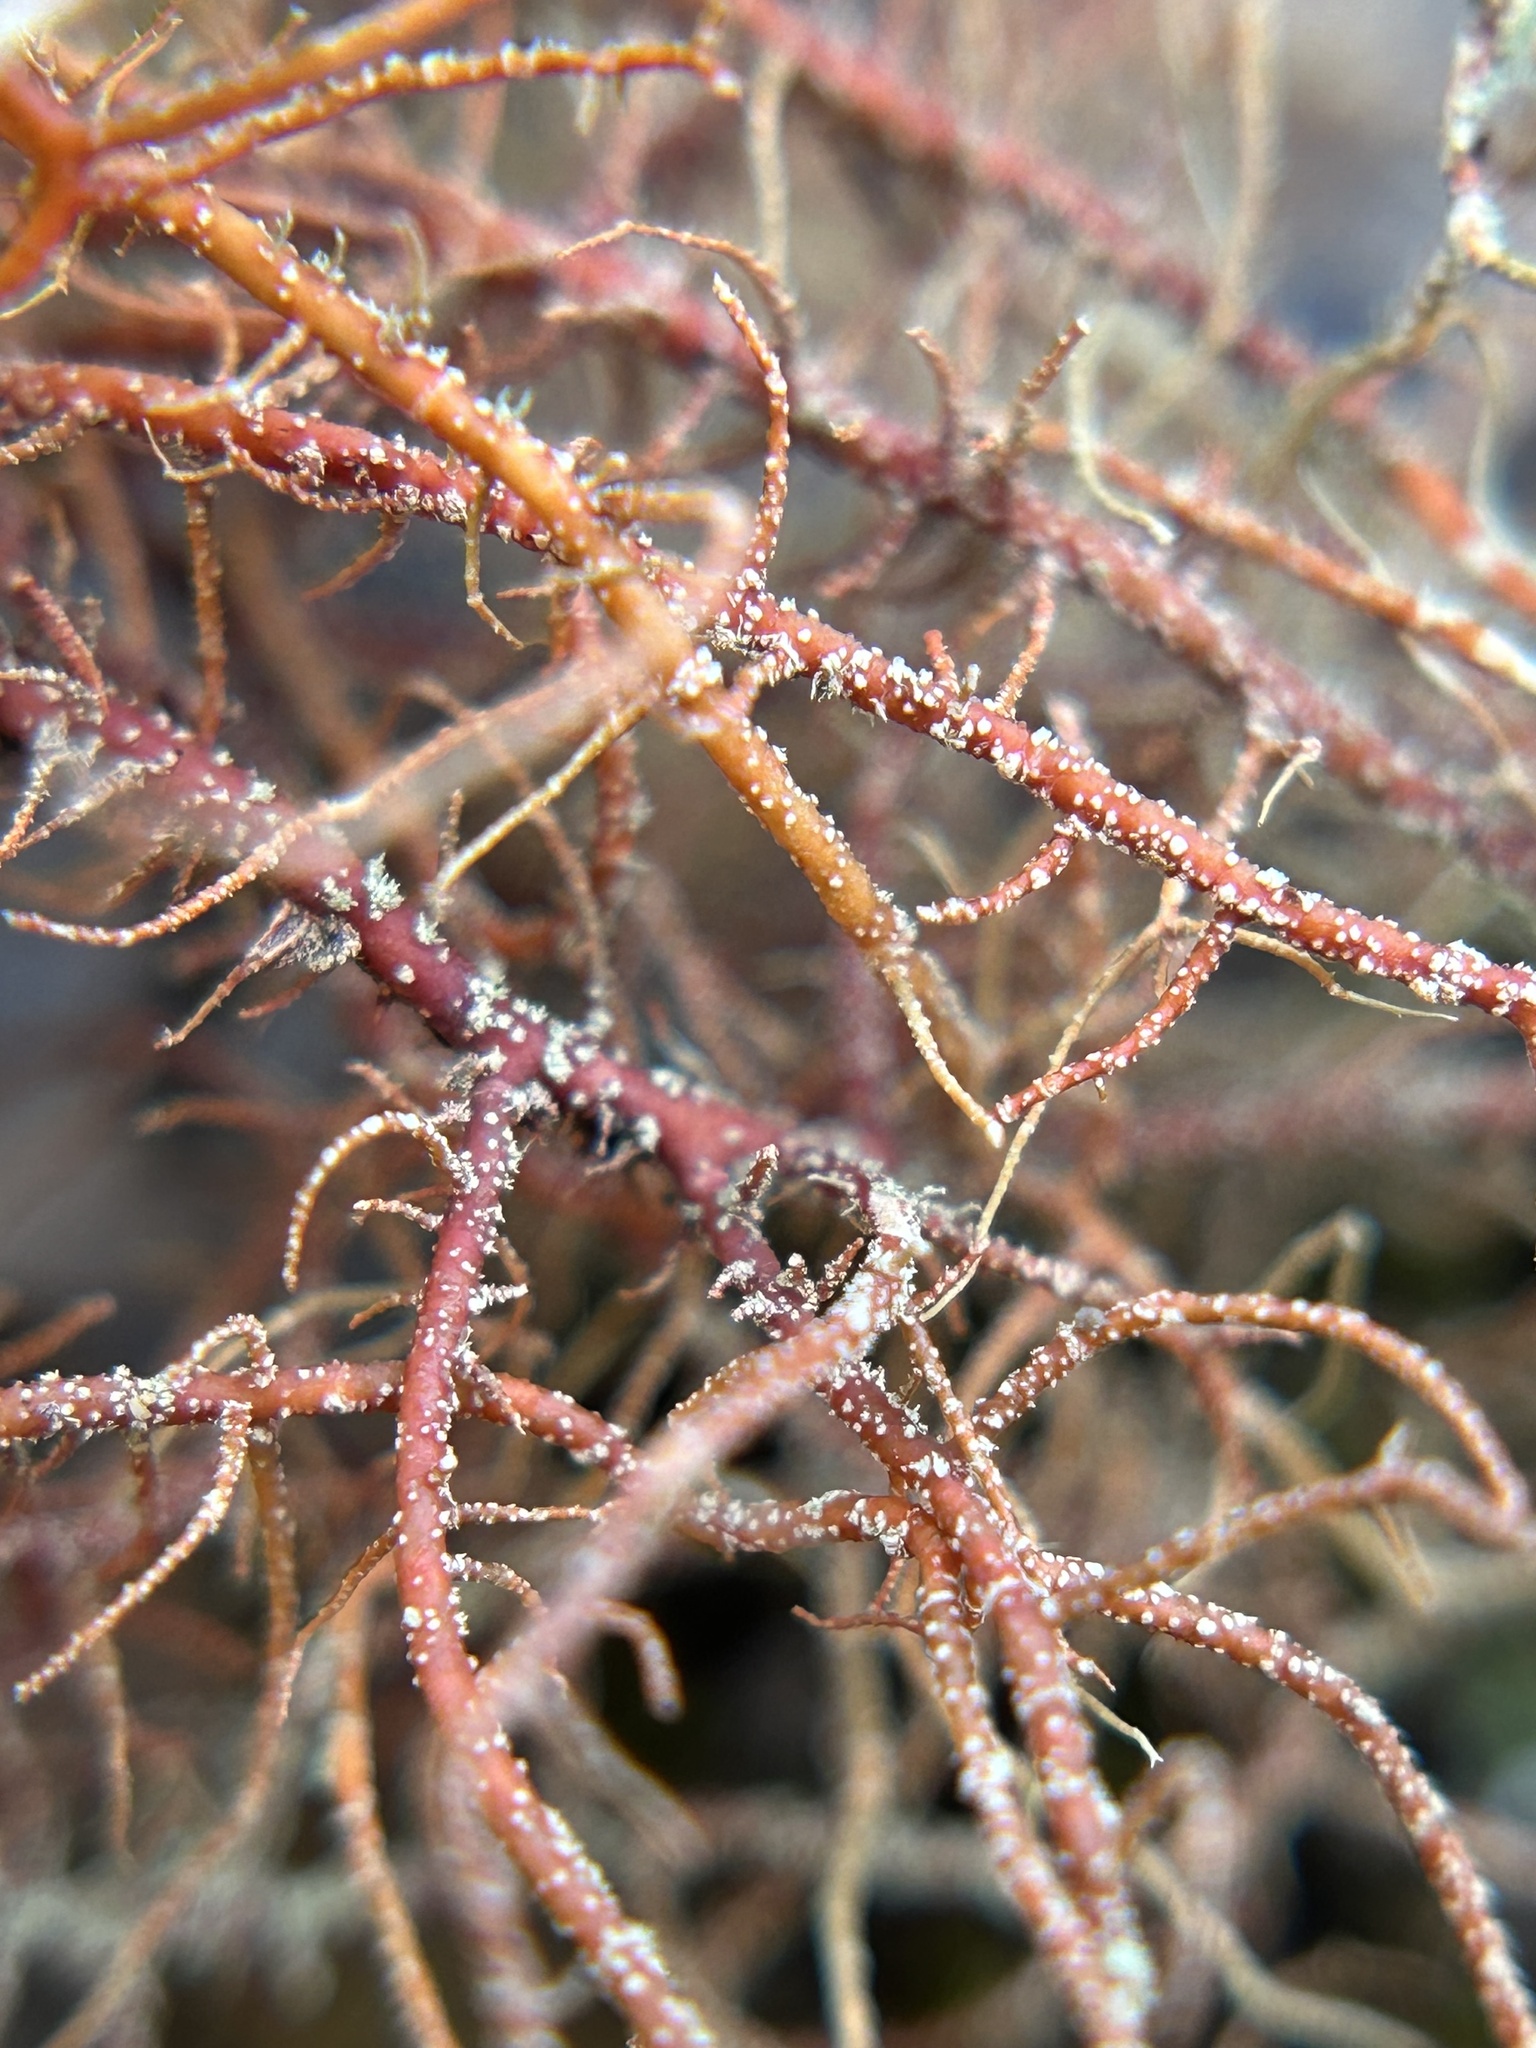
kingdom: Fungi
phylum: Ascomycota
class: Lecanoromycetes
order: Lecanorales
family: Parmeliaceae
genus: Usnea
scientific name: Usnea rubicunda
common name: Red beard lichen
